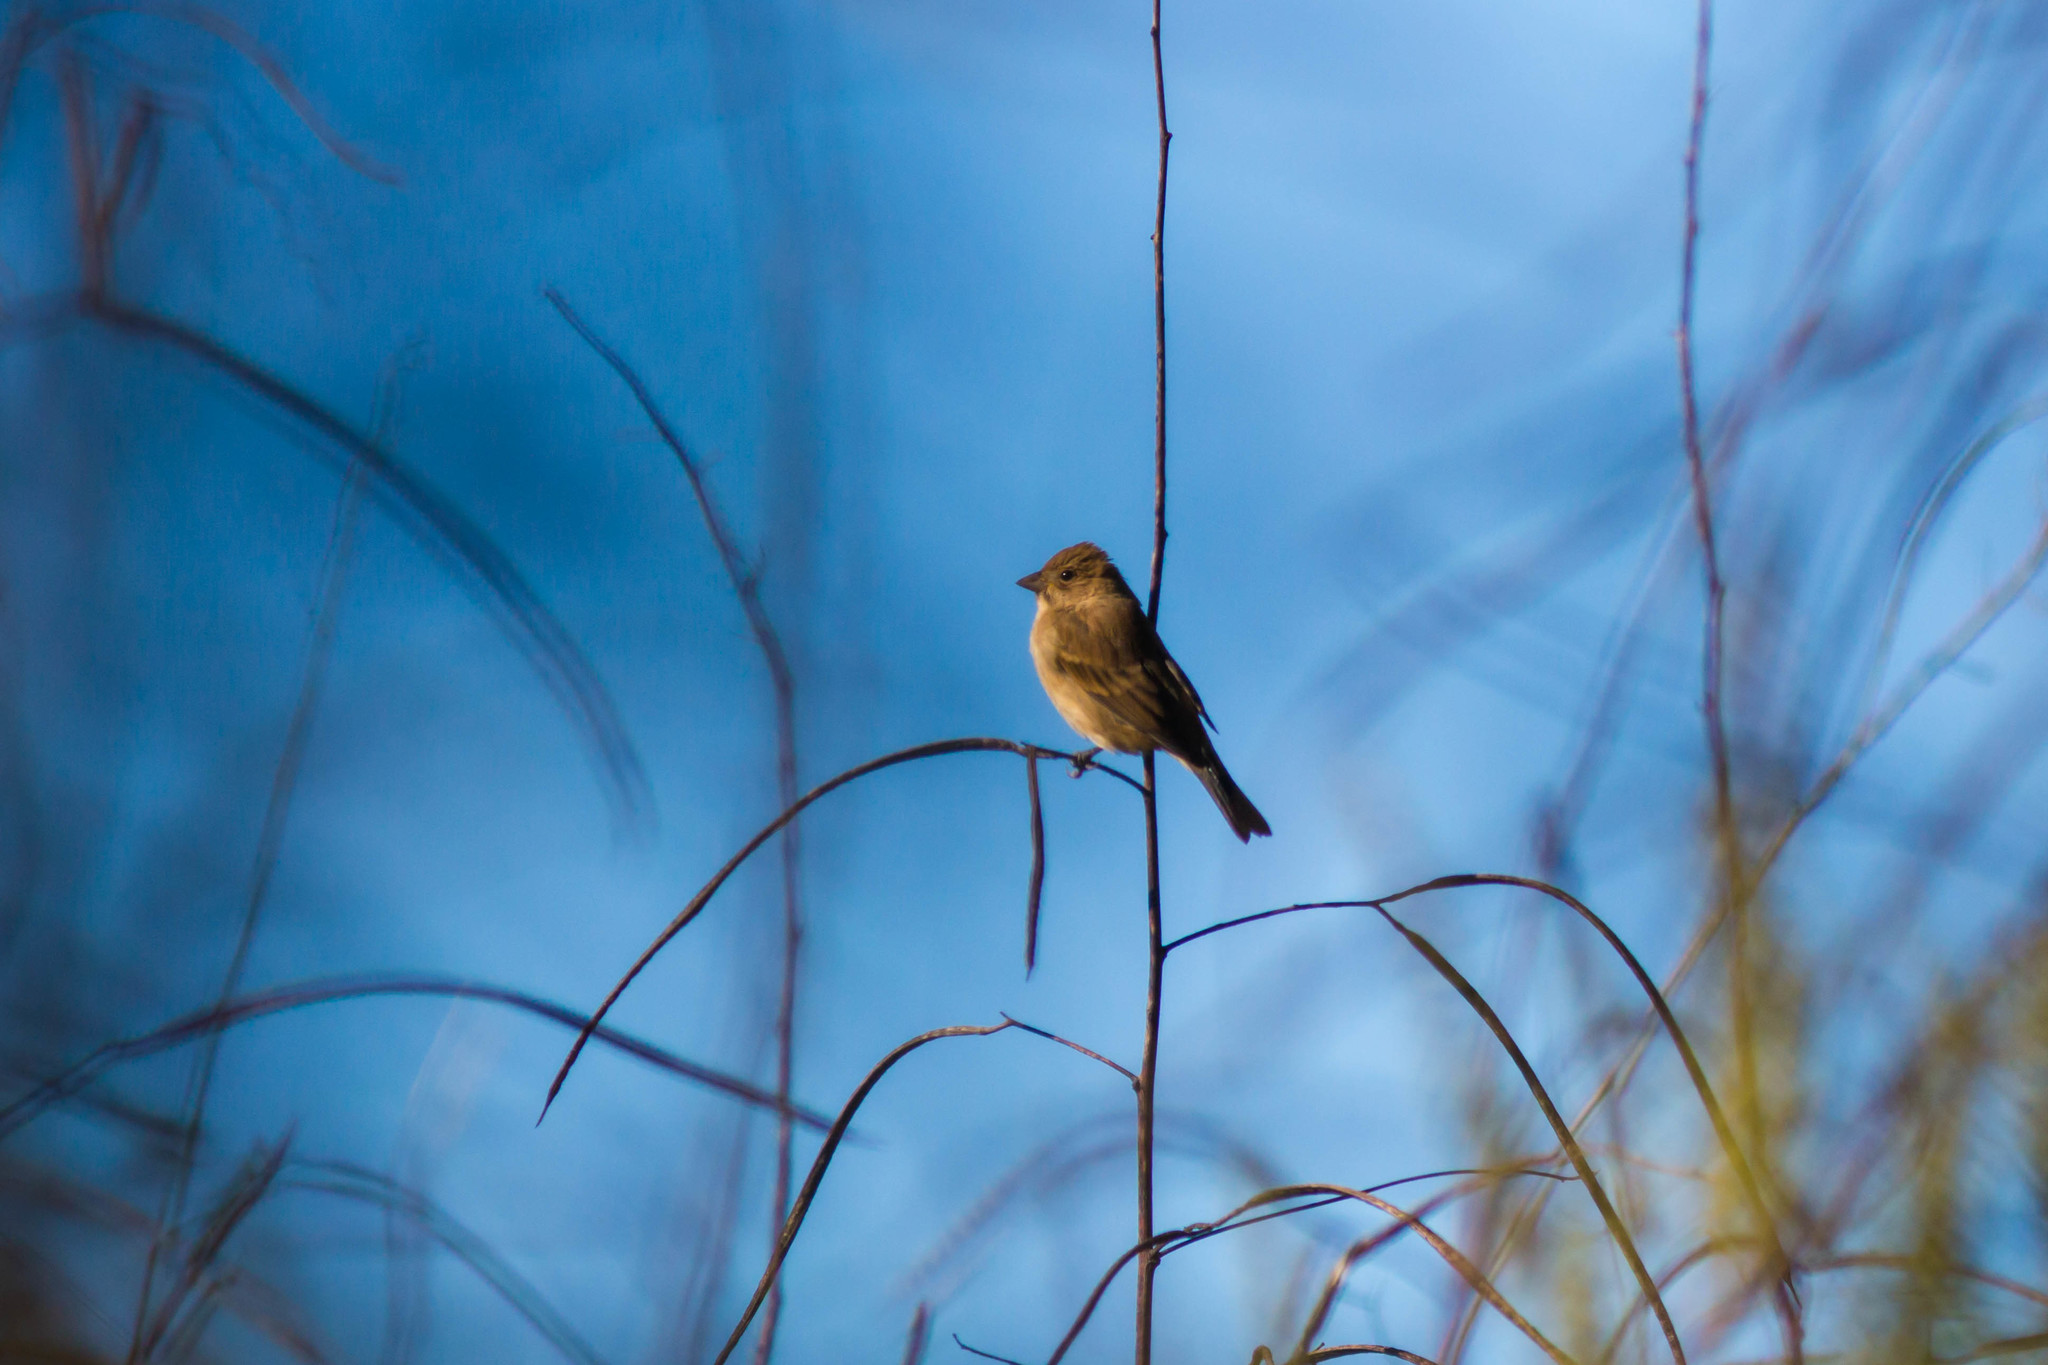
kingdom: Animalia
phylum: Chordata
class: Aves
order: Passeriformes
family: Cardinalidae
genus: Passerina
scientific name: Passerina cyanea
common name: Indigo bunting
